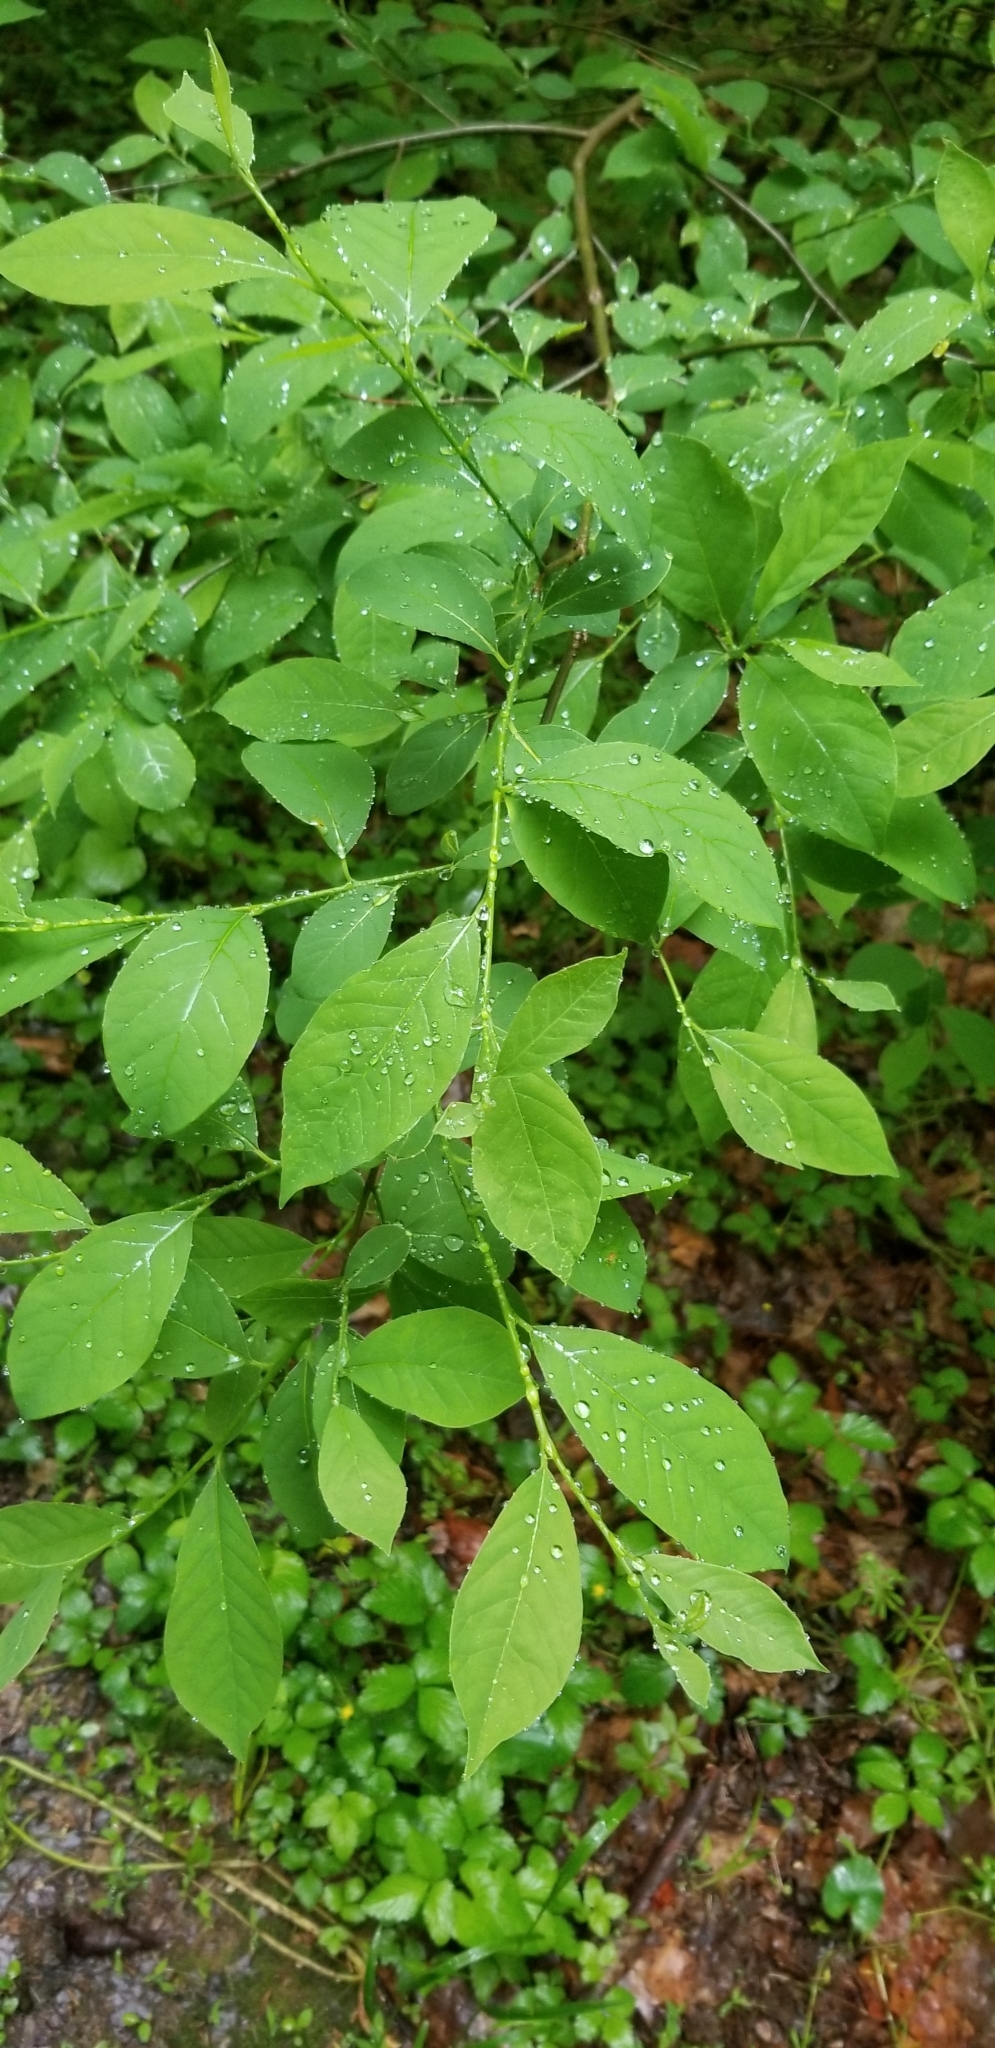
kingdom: Plantae
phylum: Tracheophyta
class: Magnoliopsida
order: Laurales
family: Lauraceae
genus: Lindera
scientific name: Lindera benzoin
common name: Spicebush
